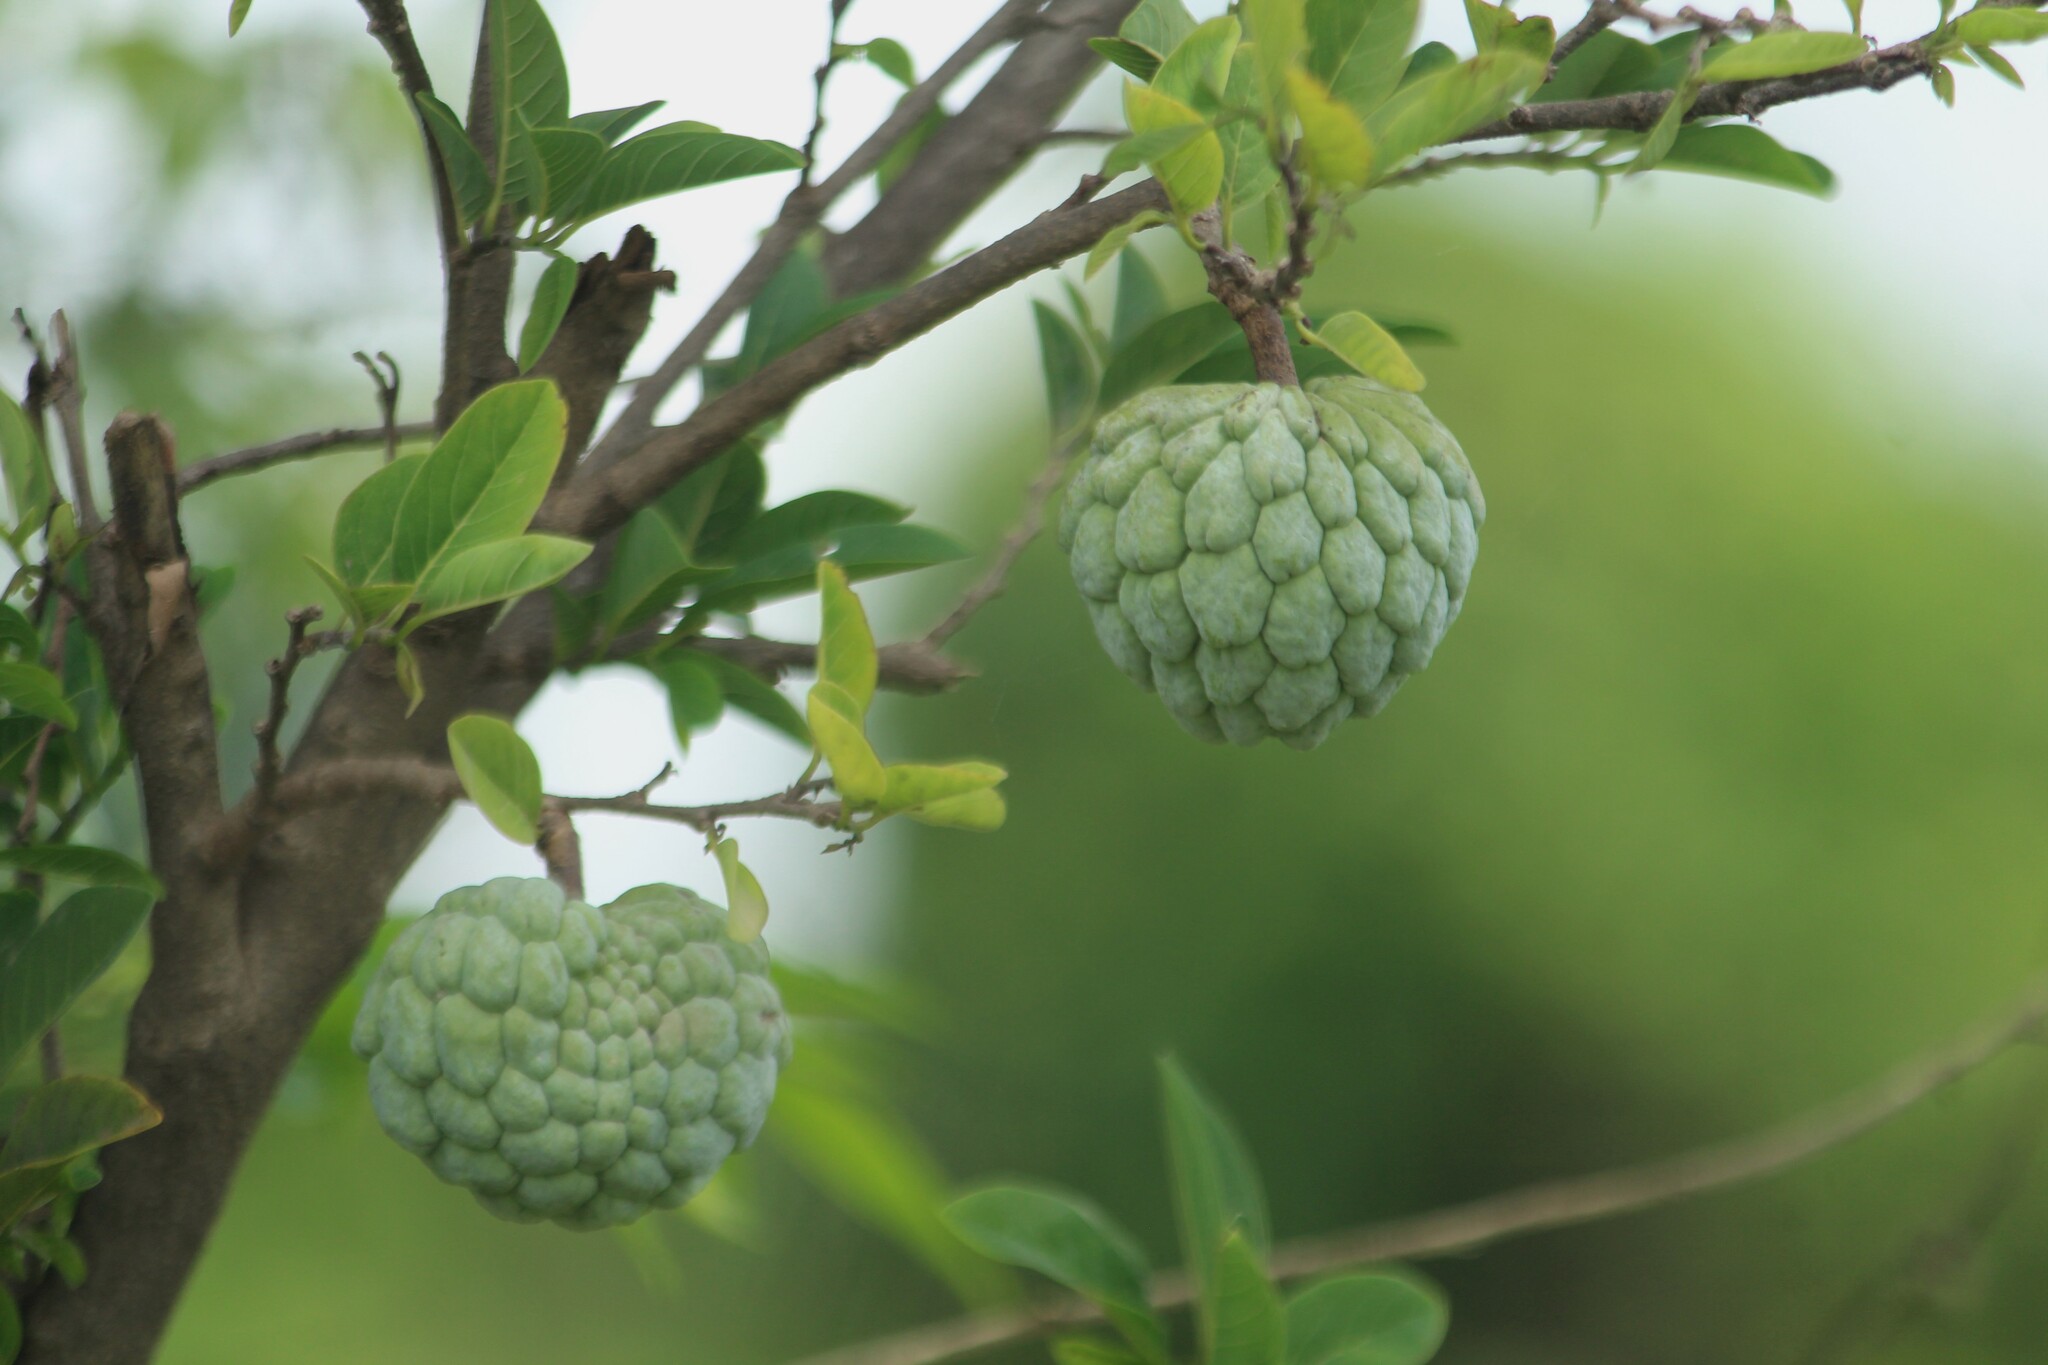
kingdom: Plantae
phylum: Tracheophyta
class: Magnoliopsida
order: Magnoliales
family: Annonaceae
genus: Annona
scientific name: Annona squamosa
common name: Custard-apple
